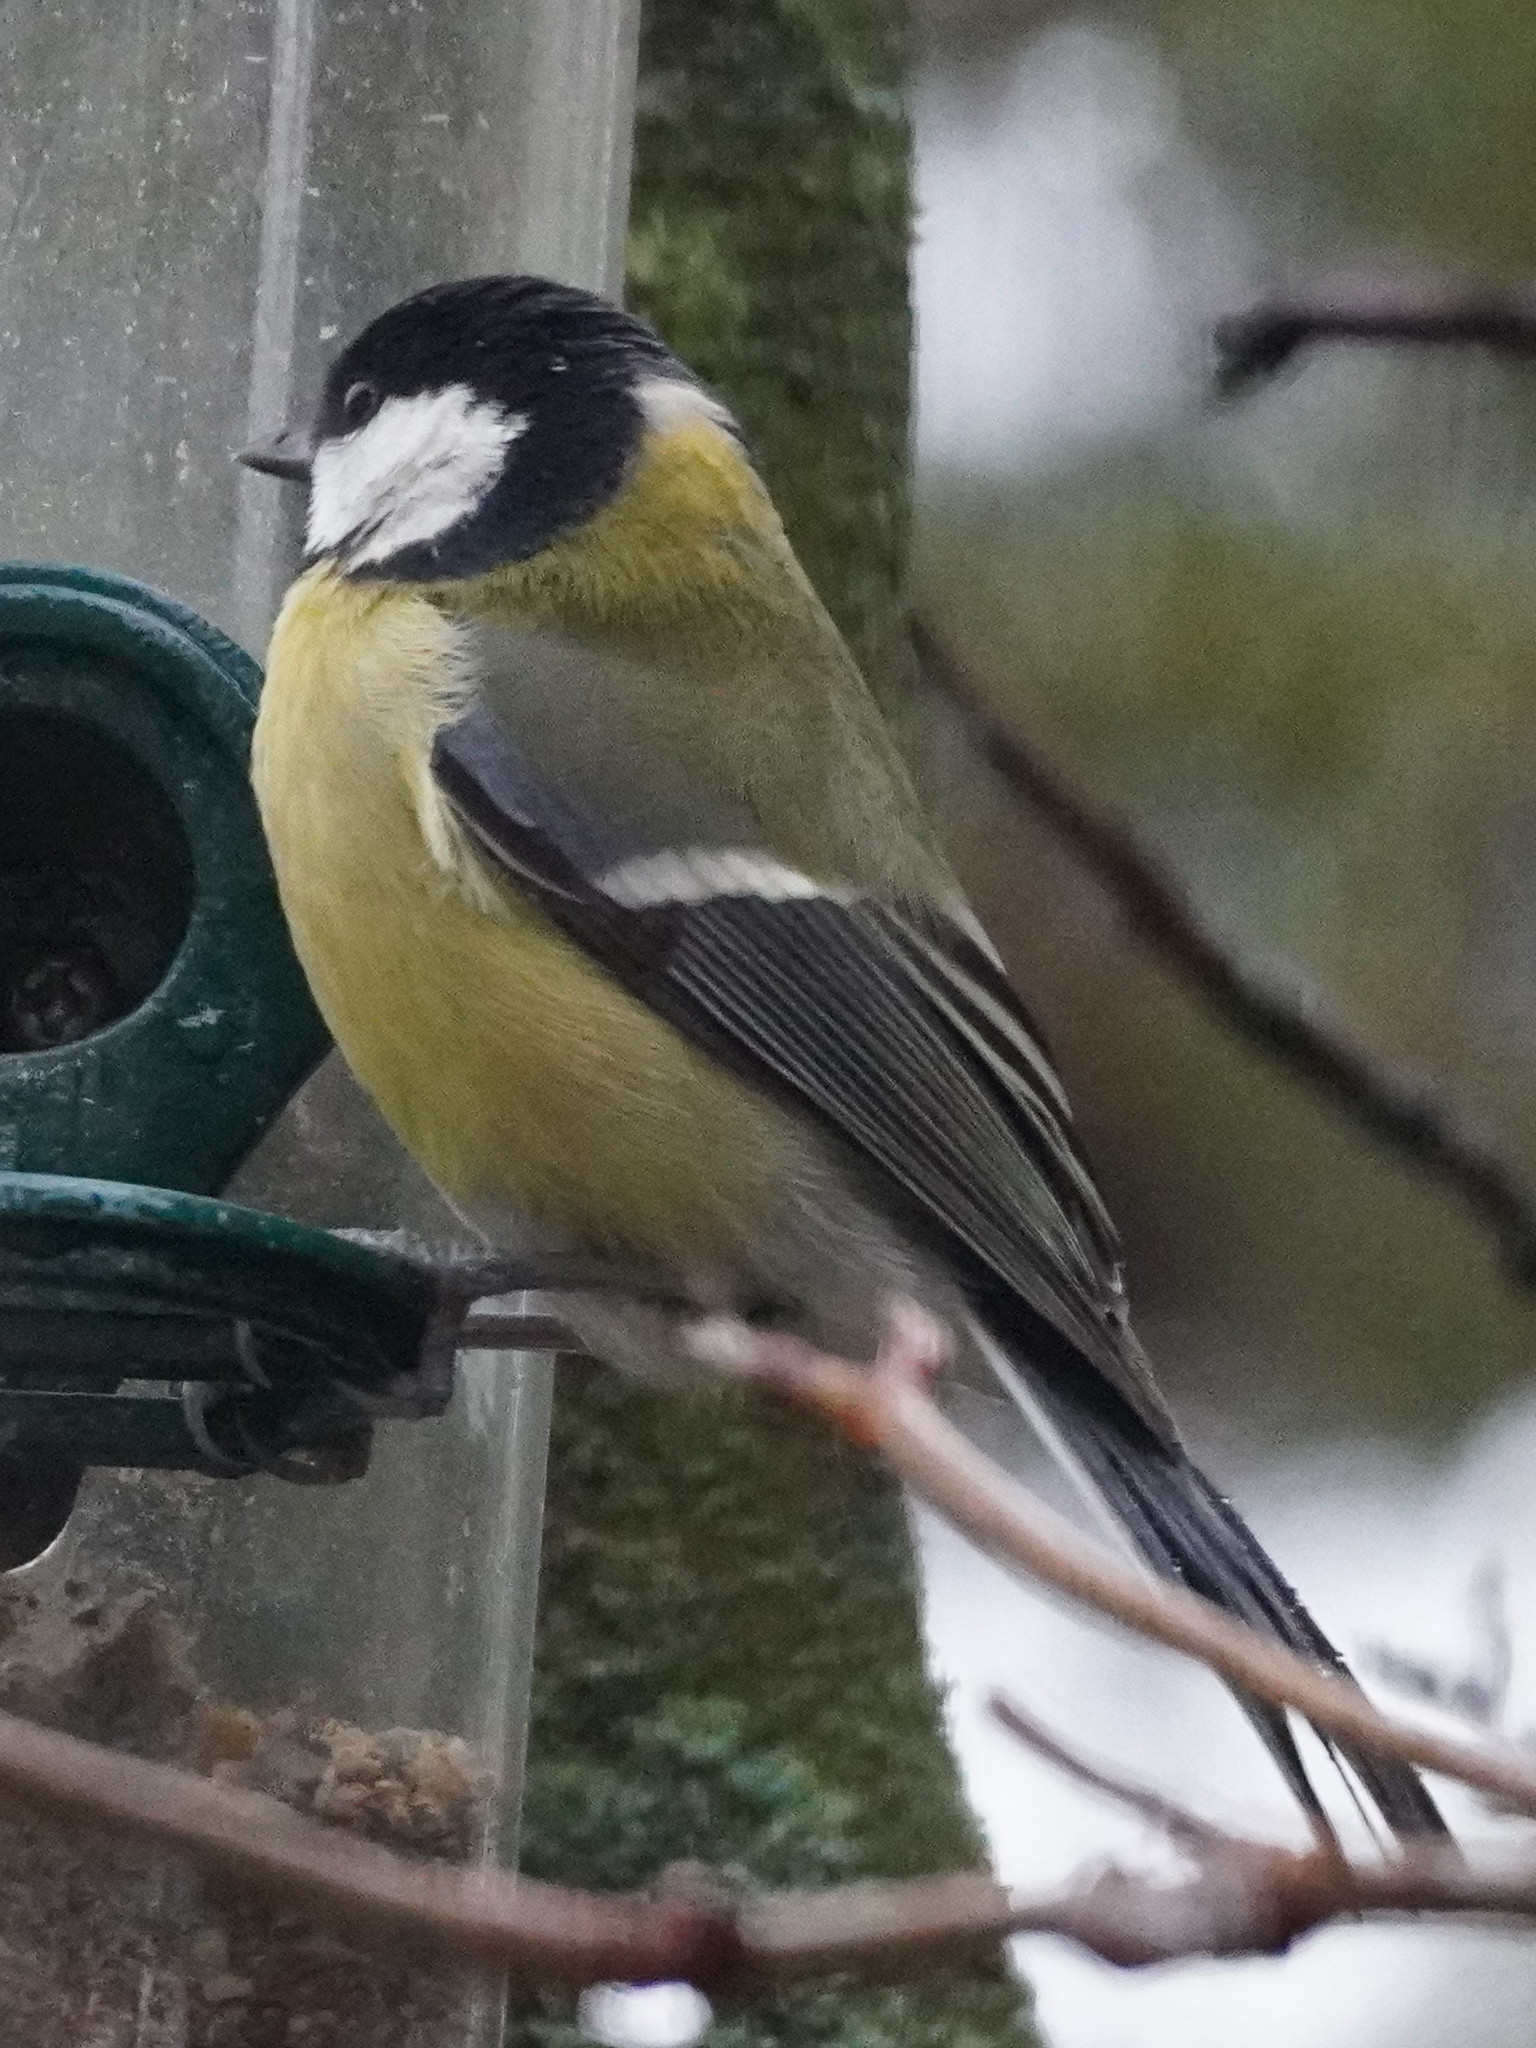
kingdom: Animalia
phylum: Chordata
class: Aves
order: Passeriformes
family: Paridae
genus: Parus
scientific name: Parus major
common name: Great tit
